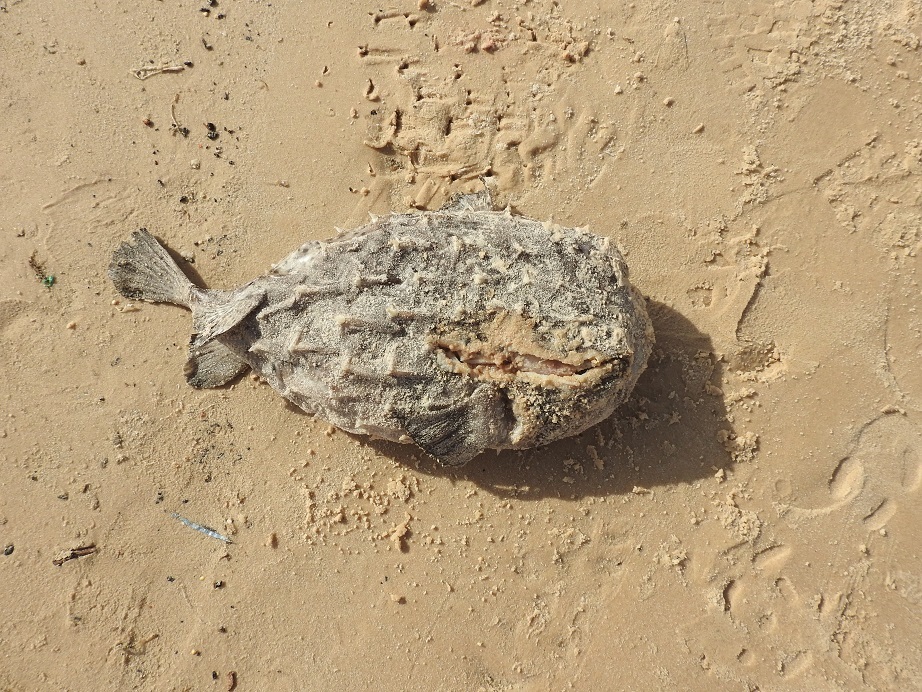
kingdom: Animalia
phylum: Chordata
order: Tetraodontiformes
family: Diodontidae
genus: Chilomycterus
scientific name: Chilomycterus reticulatus
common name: Spotfin burrfish
